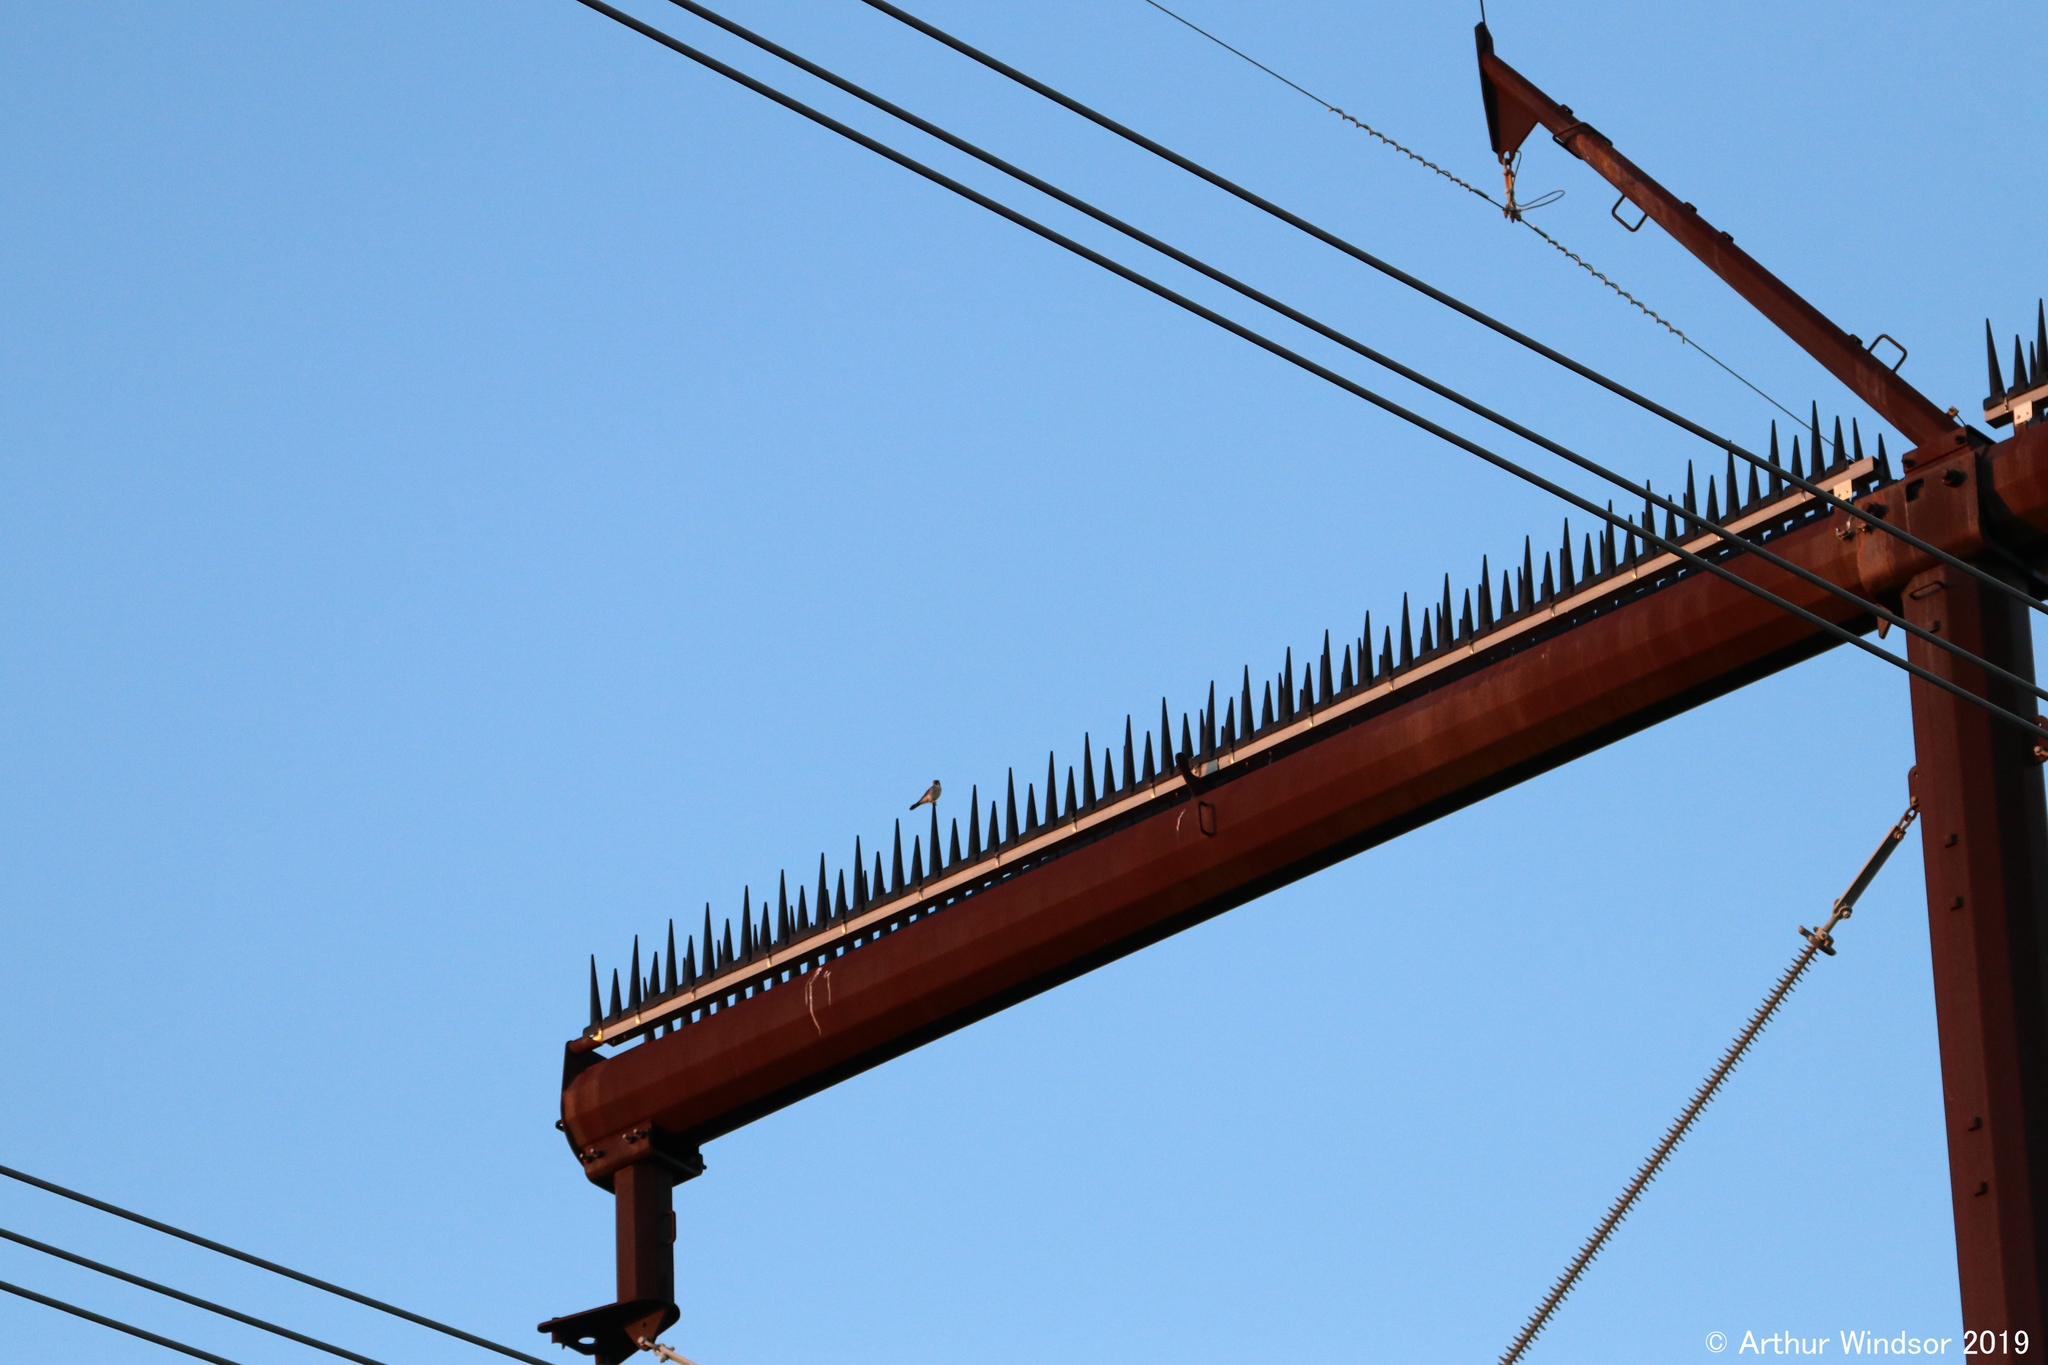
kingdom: Animalia
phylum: Chordata
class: Aves
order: Falconiformes
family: Falconidae
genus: Falco
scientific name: Falco sparverius
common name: American kestrel
